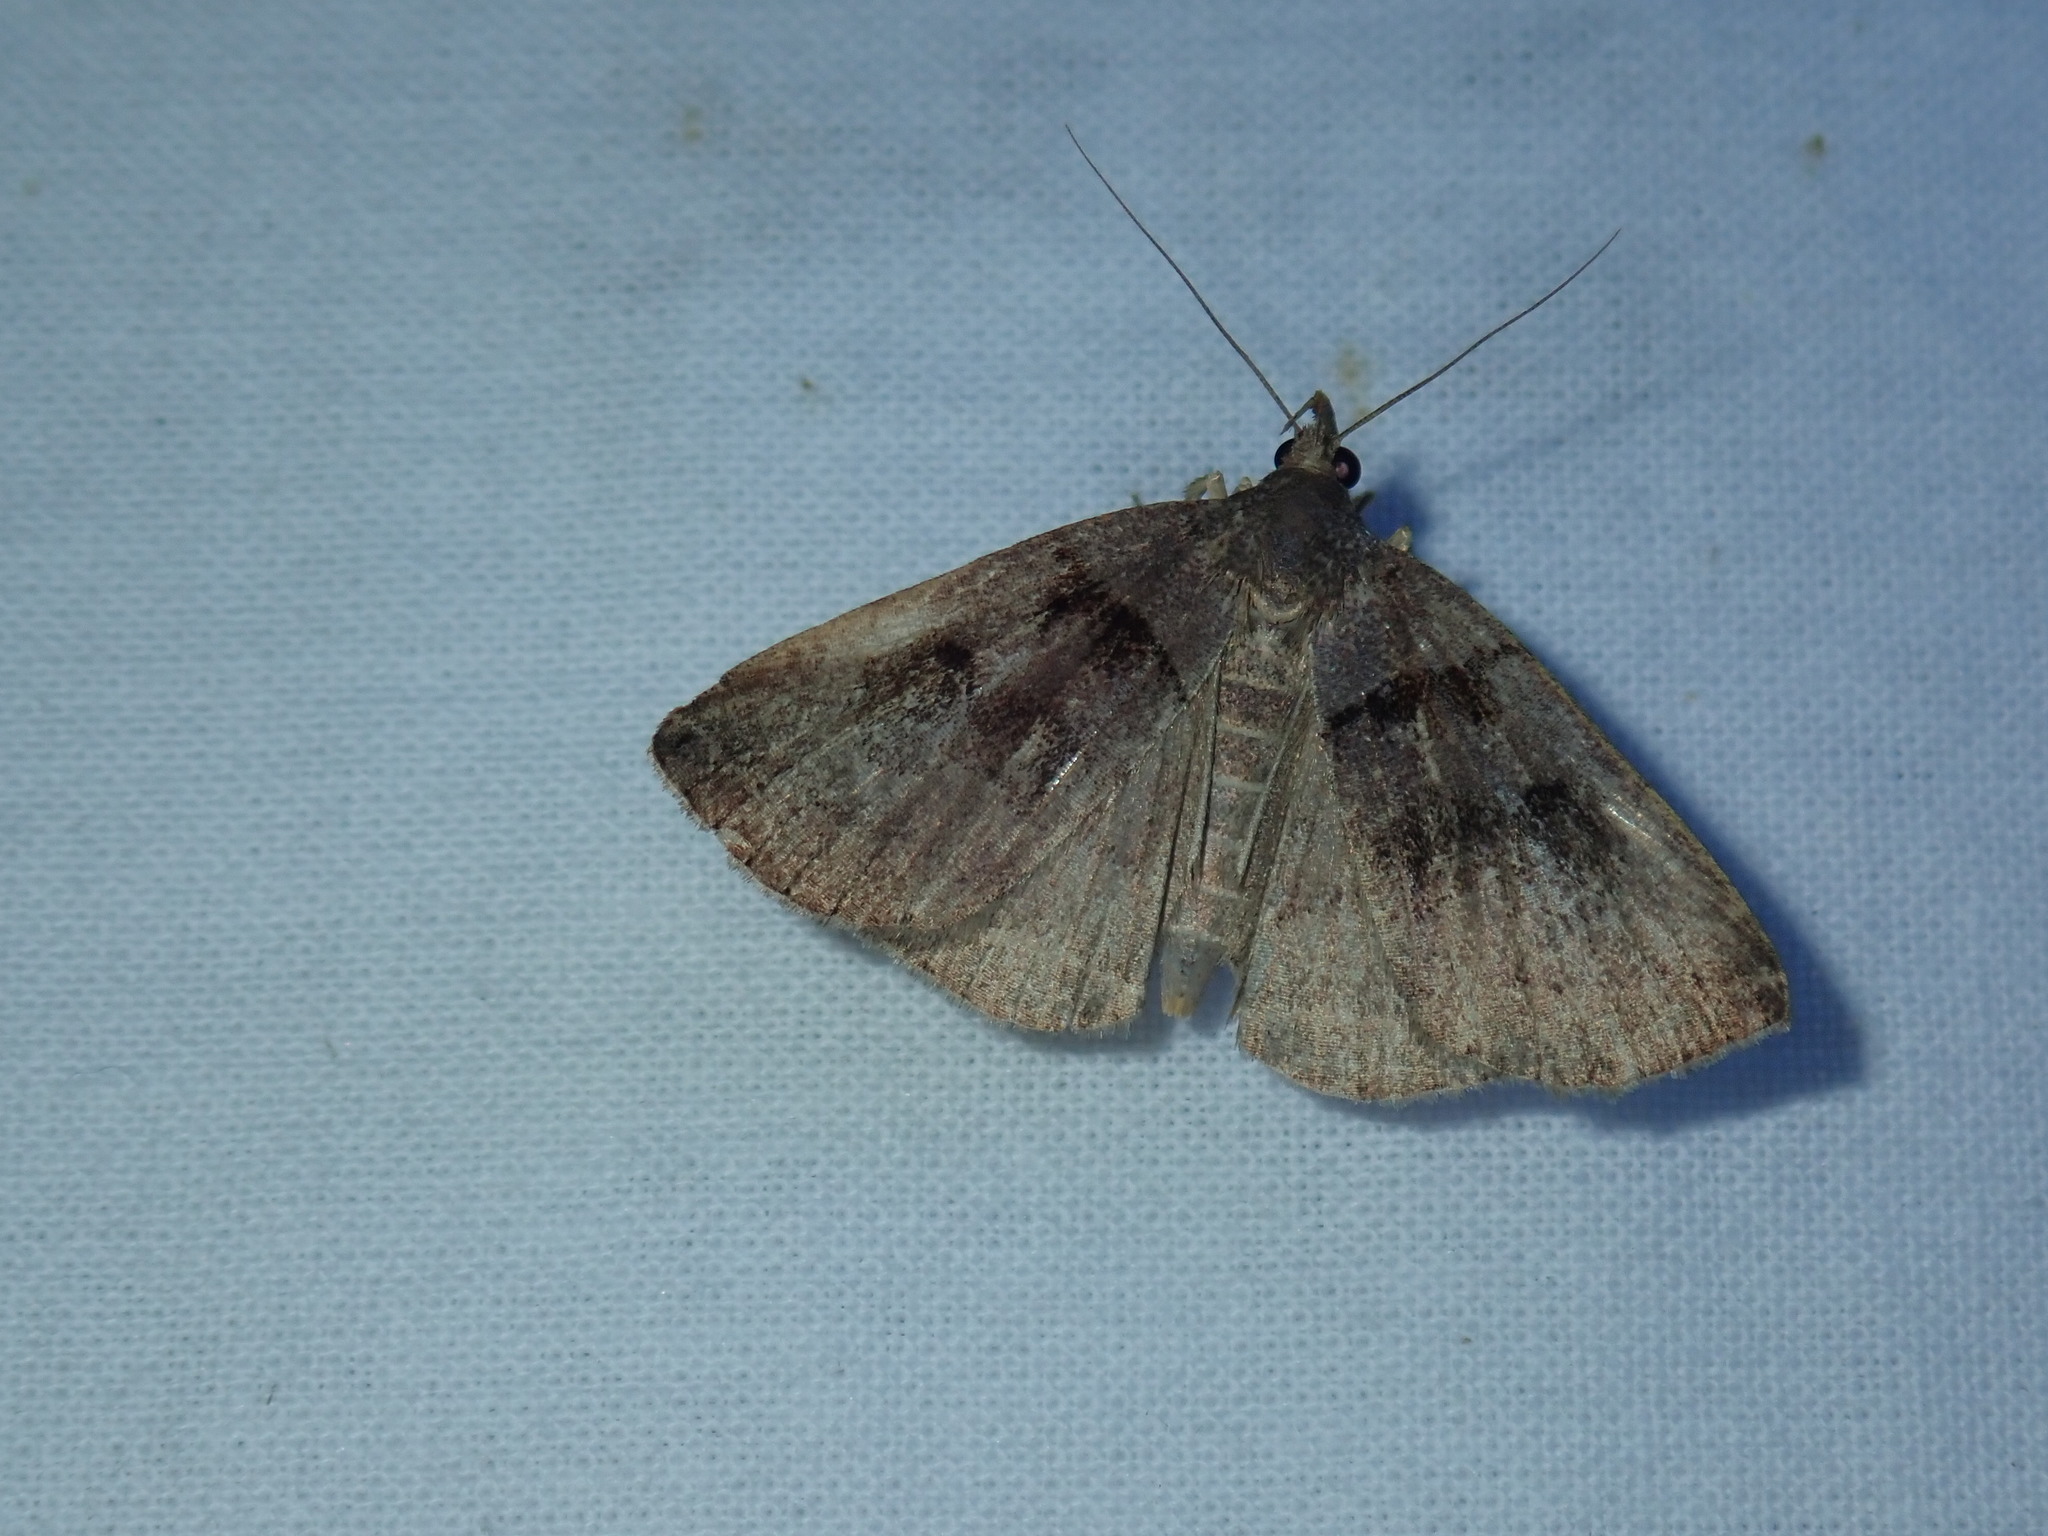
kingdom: Animalia
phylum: Arthropoda
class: Insecta
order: Lepidoptera
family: Erebidae
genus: Zanclognatha
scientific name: Zanclognatha laevigata
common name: Variable fan-foot
